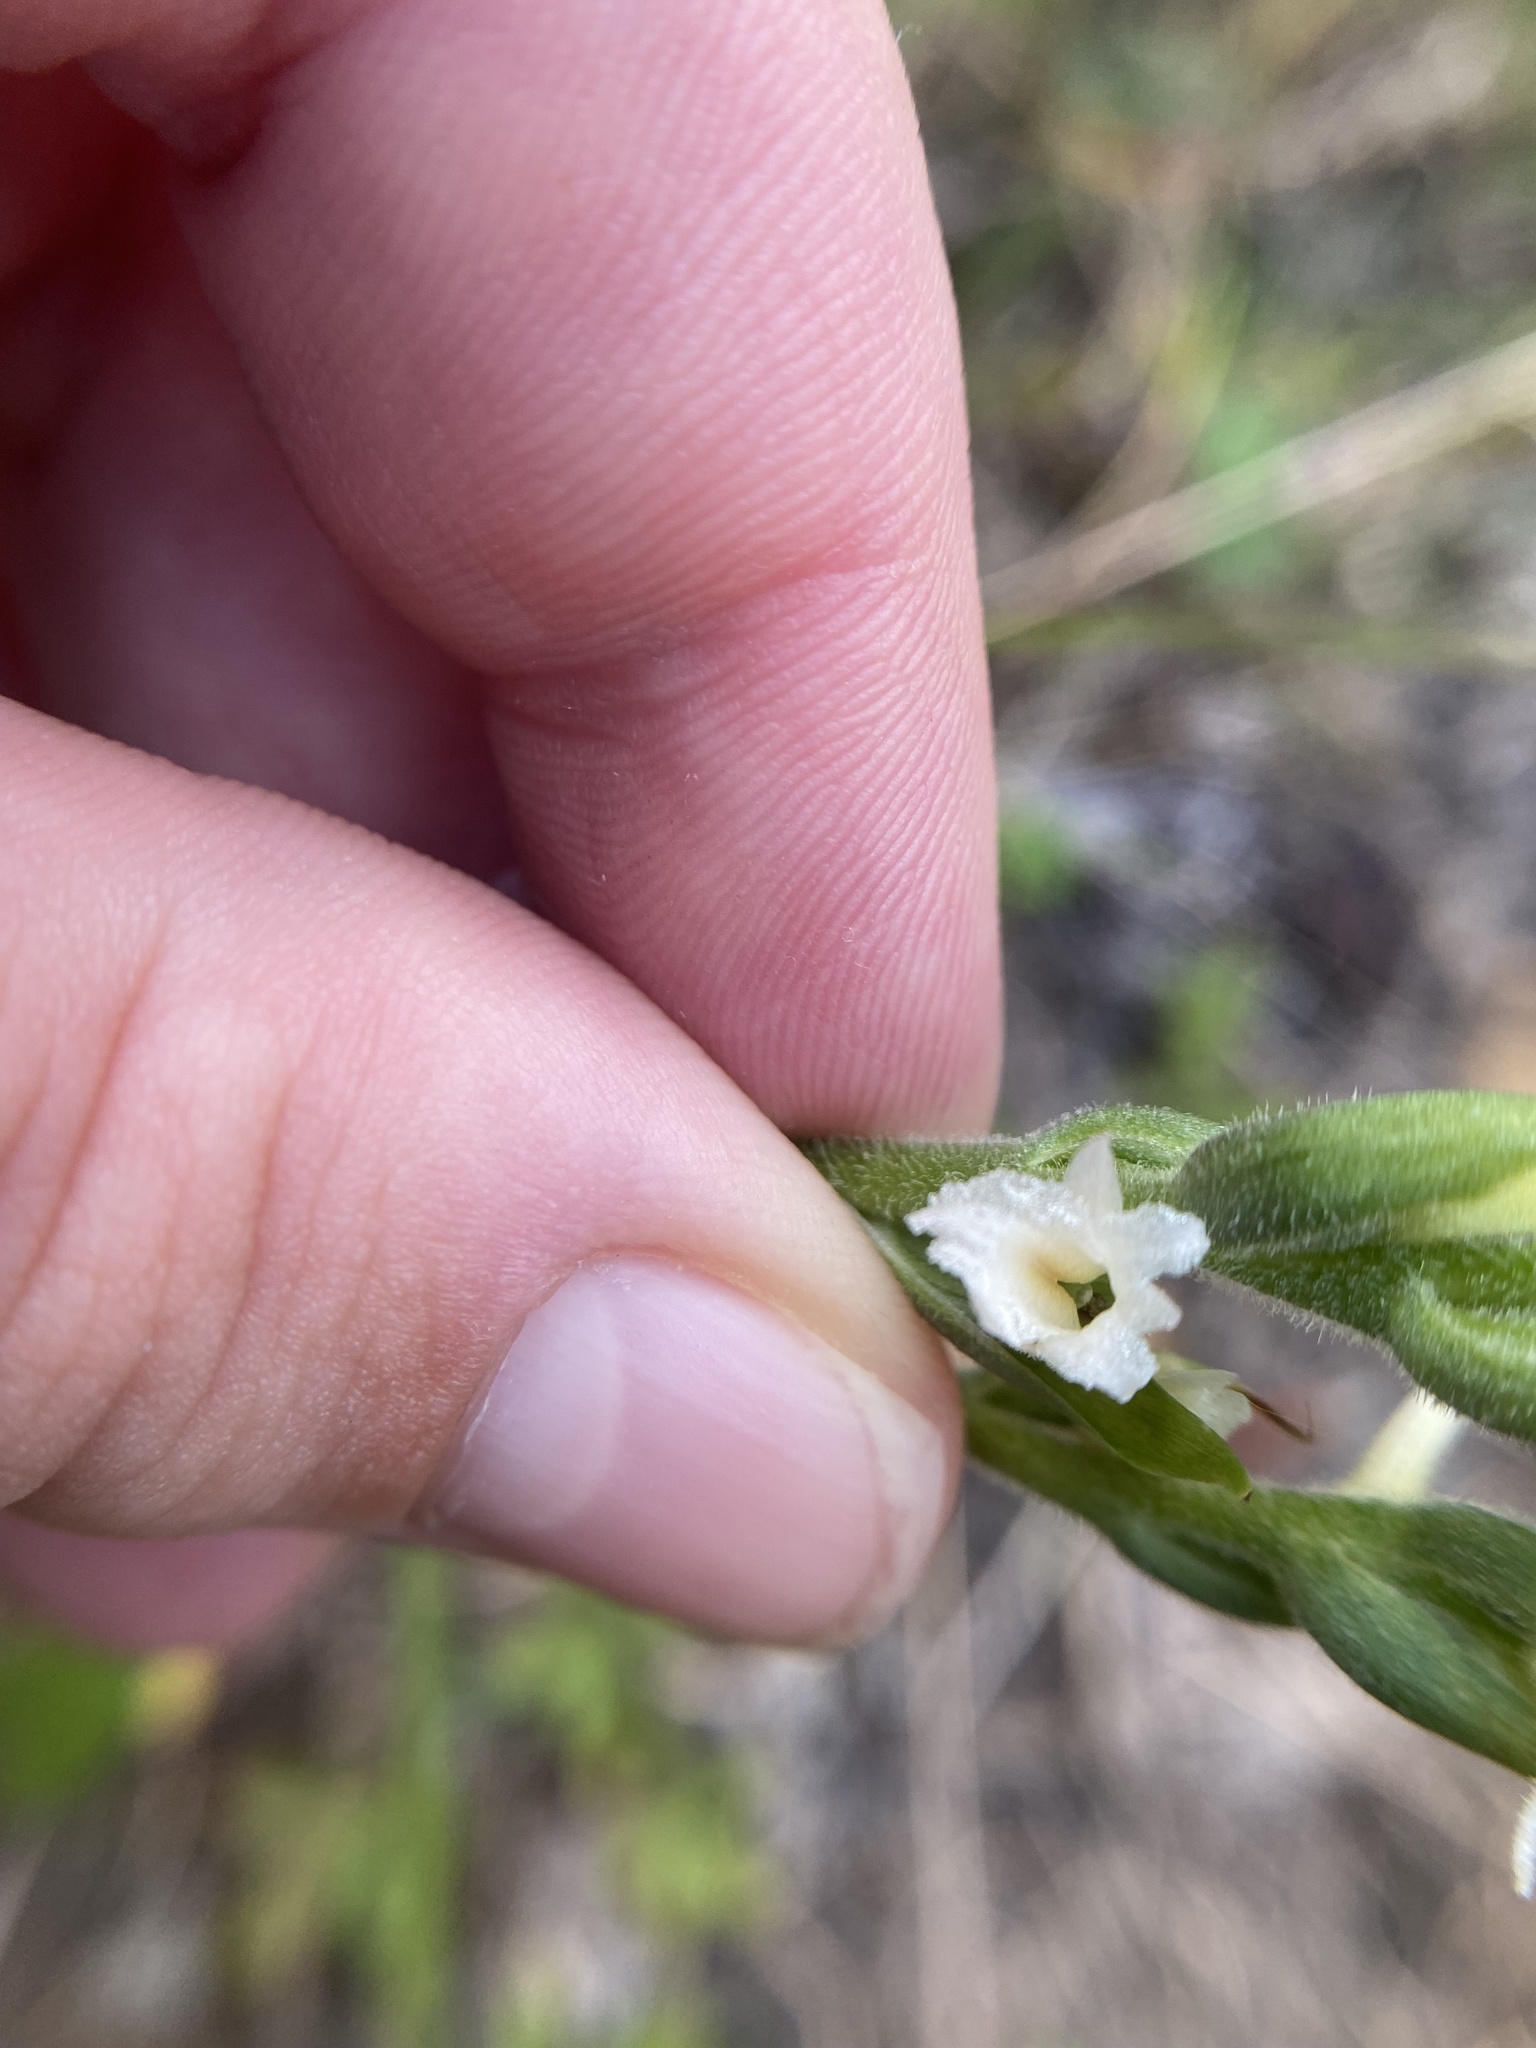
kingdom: Plantae
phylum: Tracheophyta
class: Liliopsida
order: Asparagales
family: Orchidaceae
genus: Spiranthes
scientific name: Spiranthes ochroleuca
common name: Yellow ladies'-tresses
